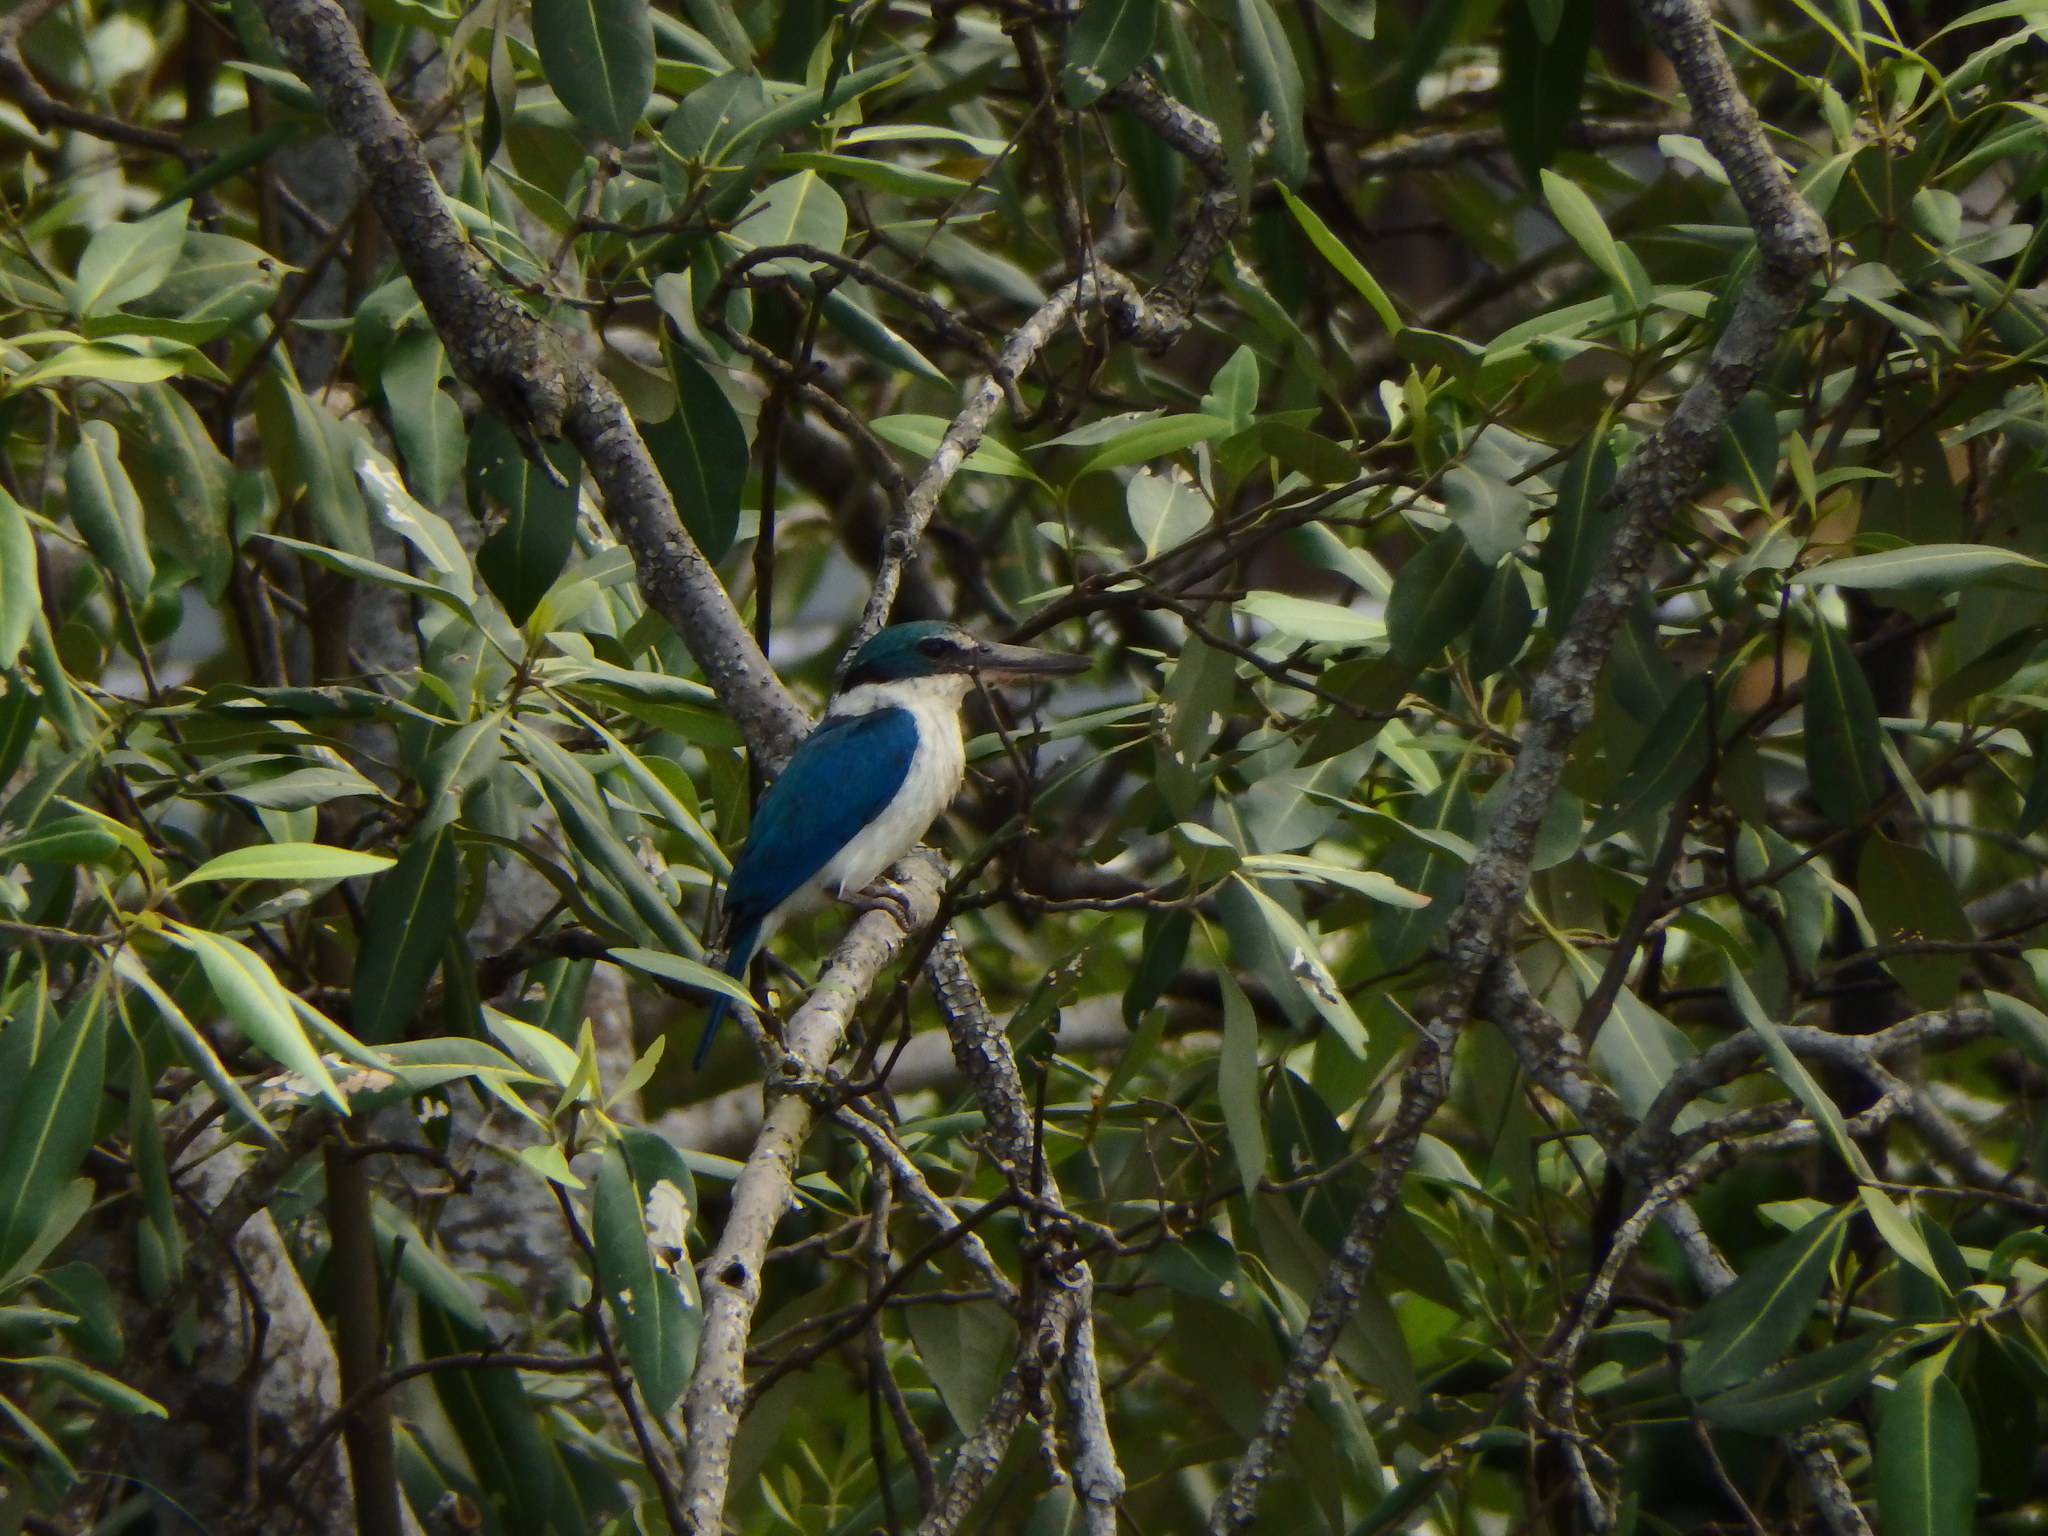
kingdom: Animalia
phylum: Chordata
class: Aves
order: Coraciiformes
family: Alcedinidae
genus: Todiramphus
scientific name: Todiramphus chloris
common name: Collared kingfisher
